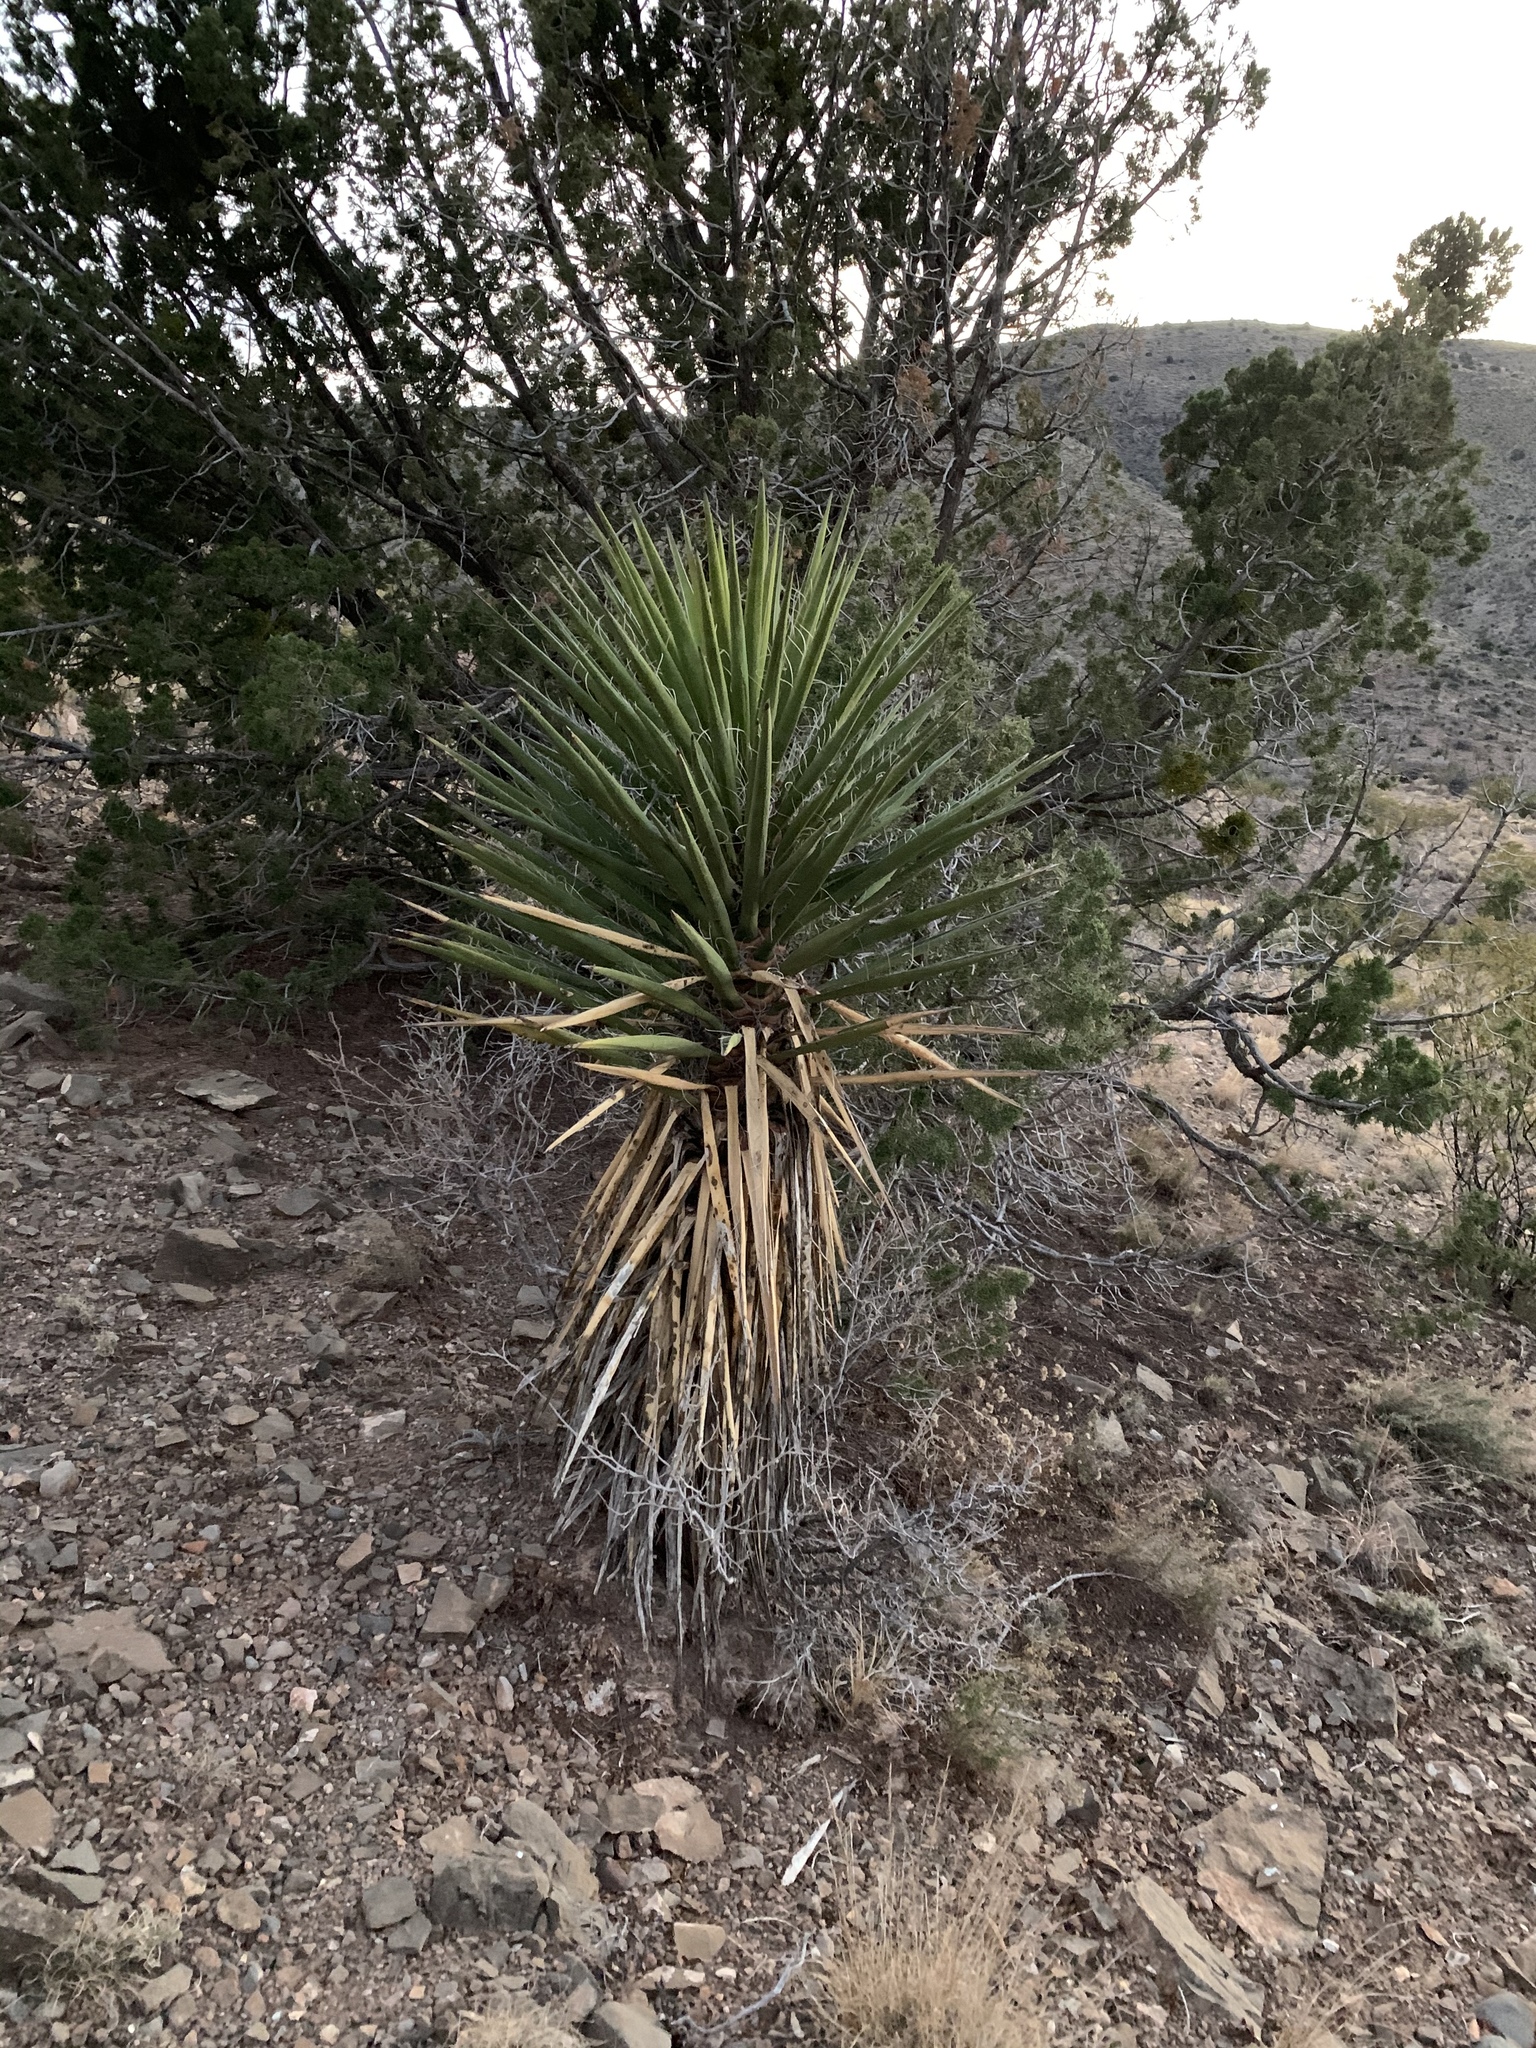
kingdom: Plantae
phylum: Tracheophyta
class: Liliopsida
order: Asparagales
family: Asparagaceae
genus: Yucca
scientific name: Yucca treculiana
